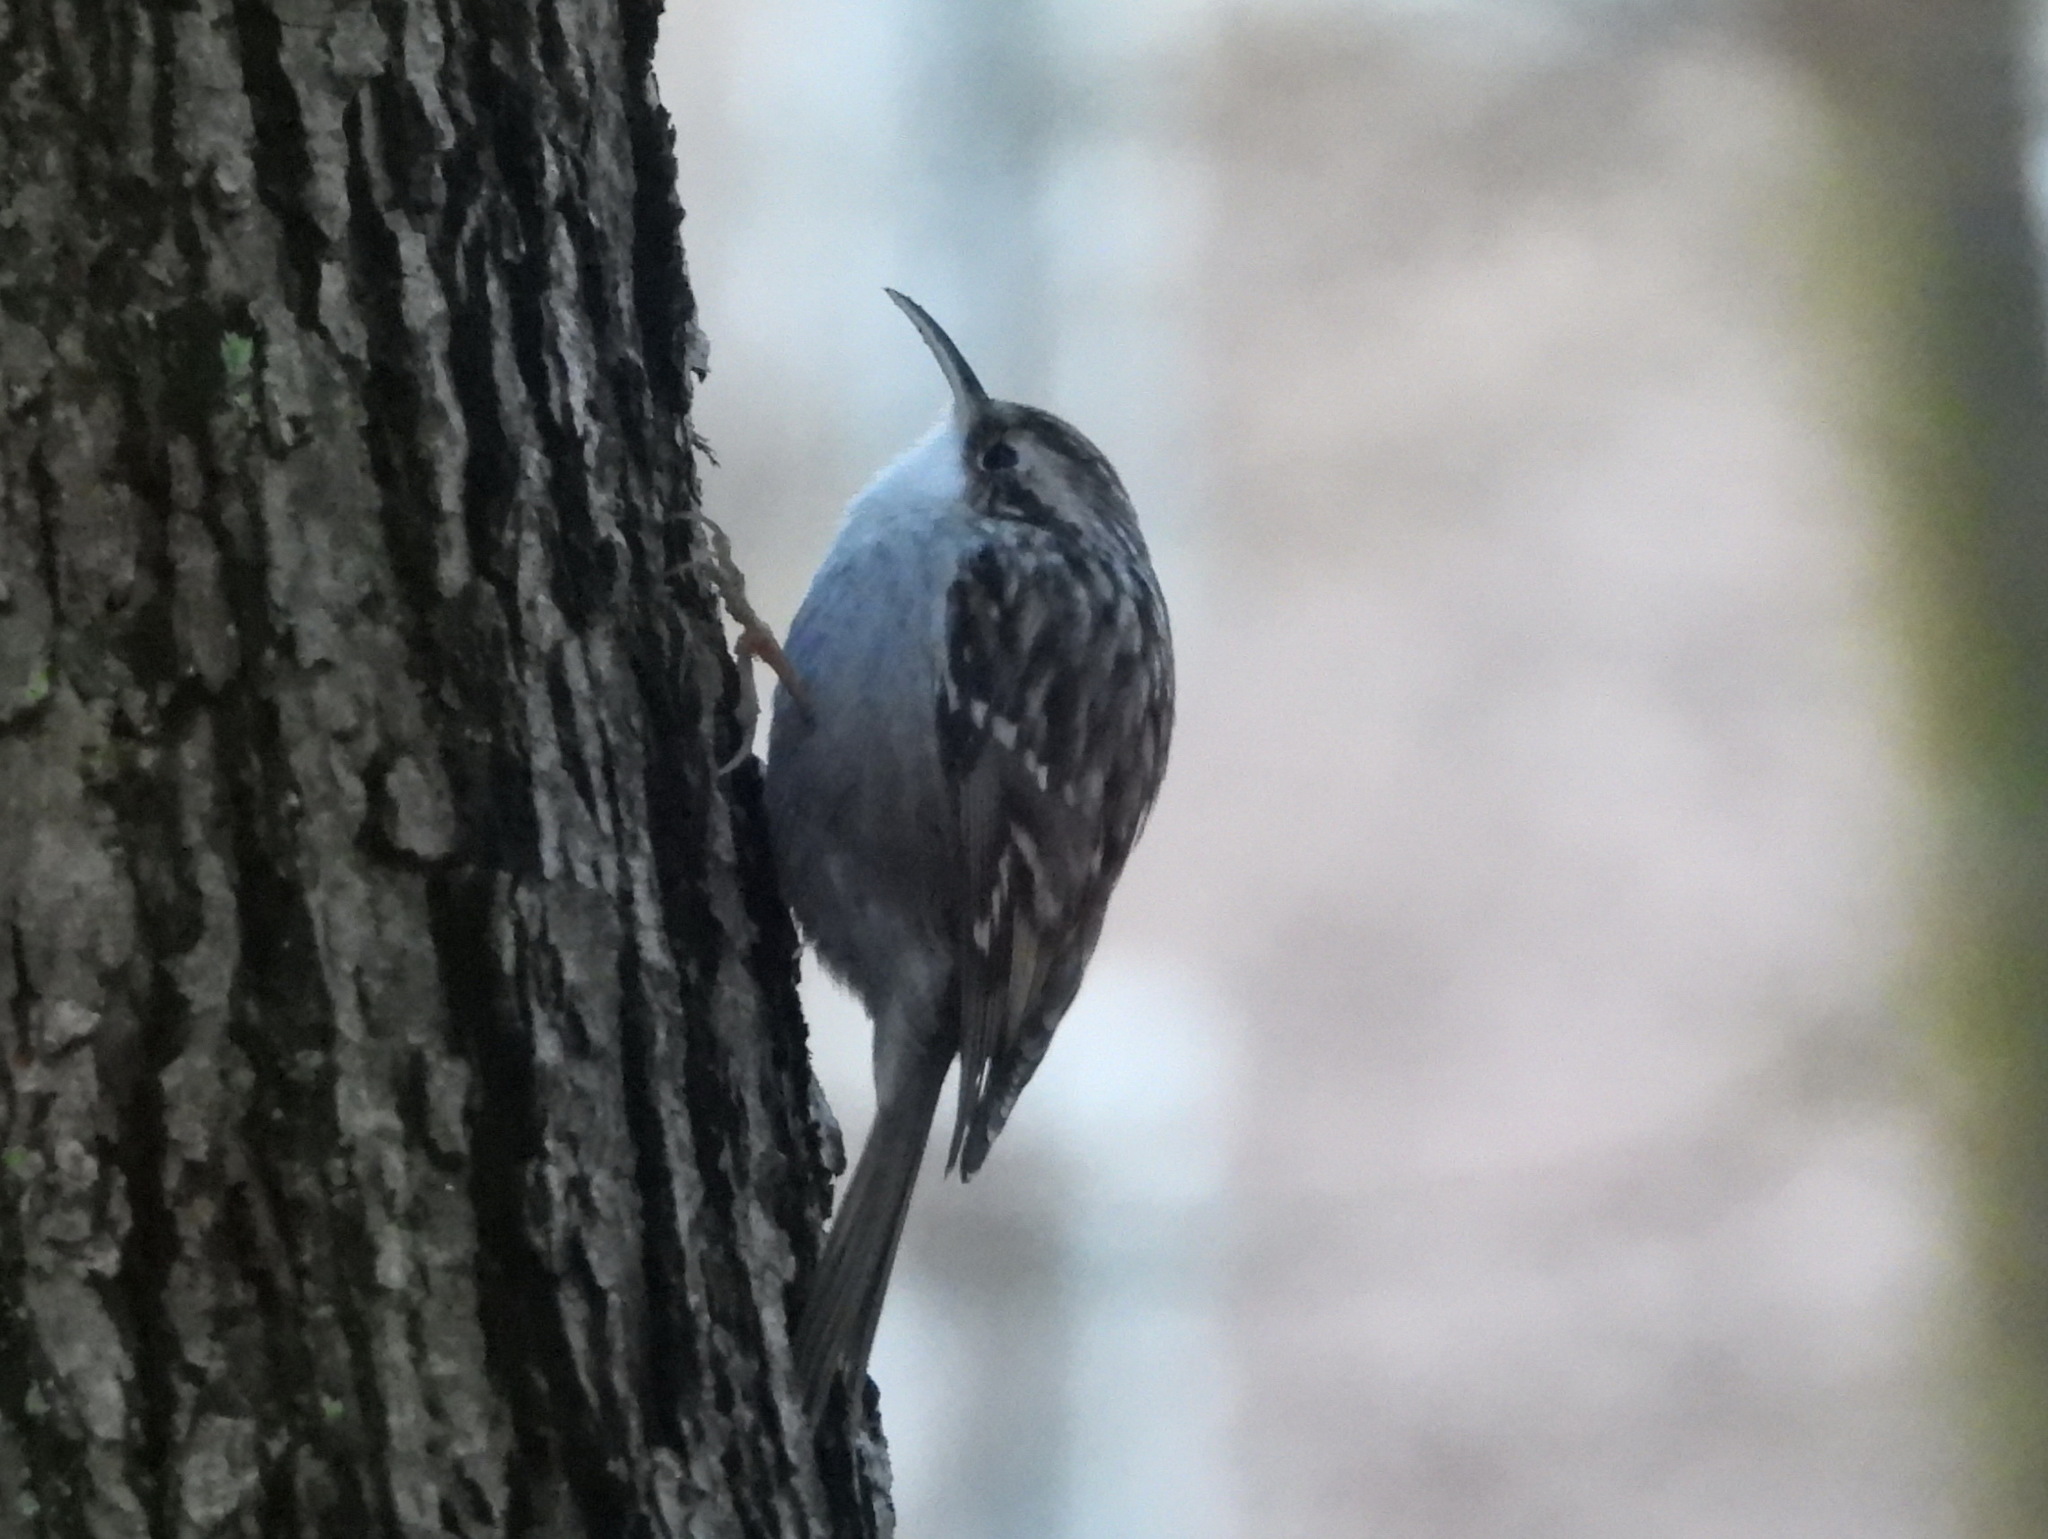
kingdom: Animalia
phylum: Chordata
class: Aves
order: Passeriformes
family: Certhiidae
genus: Certhia
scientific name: Certhia brachydactyla
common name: Short-toed treecreeper
